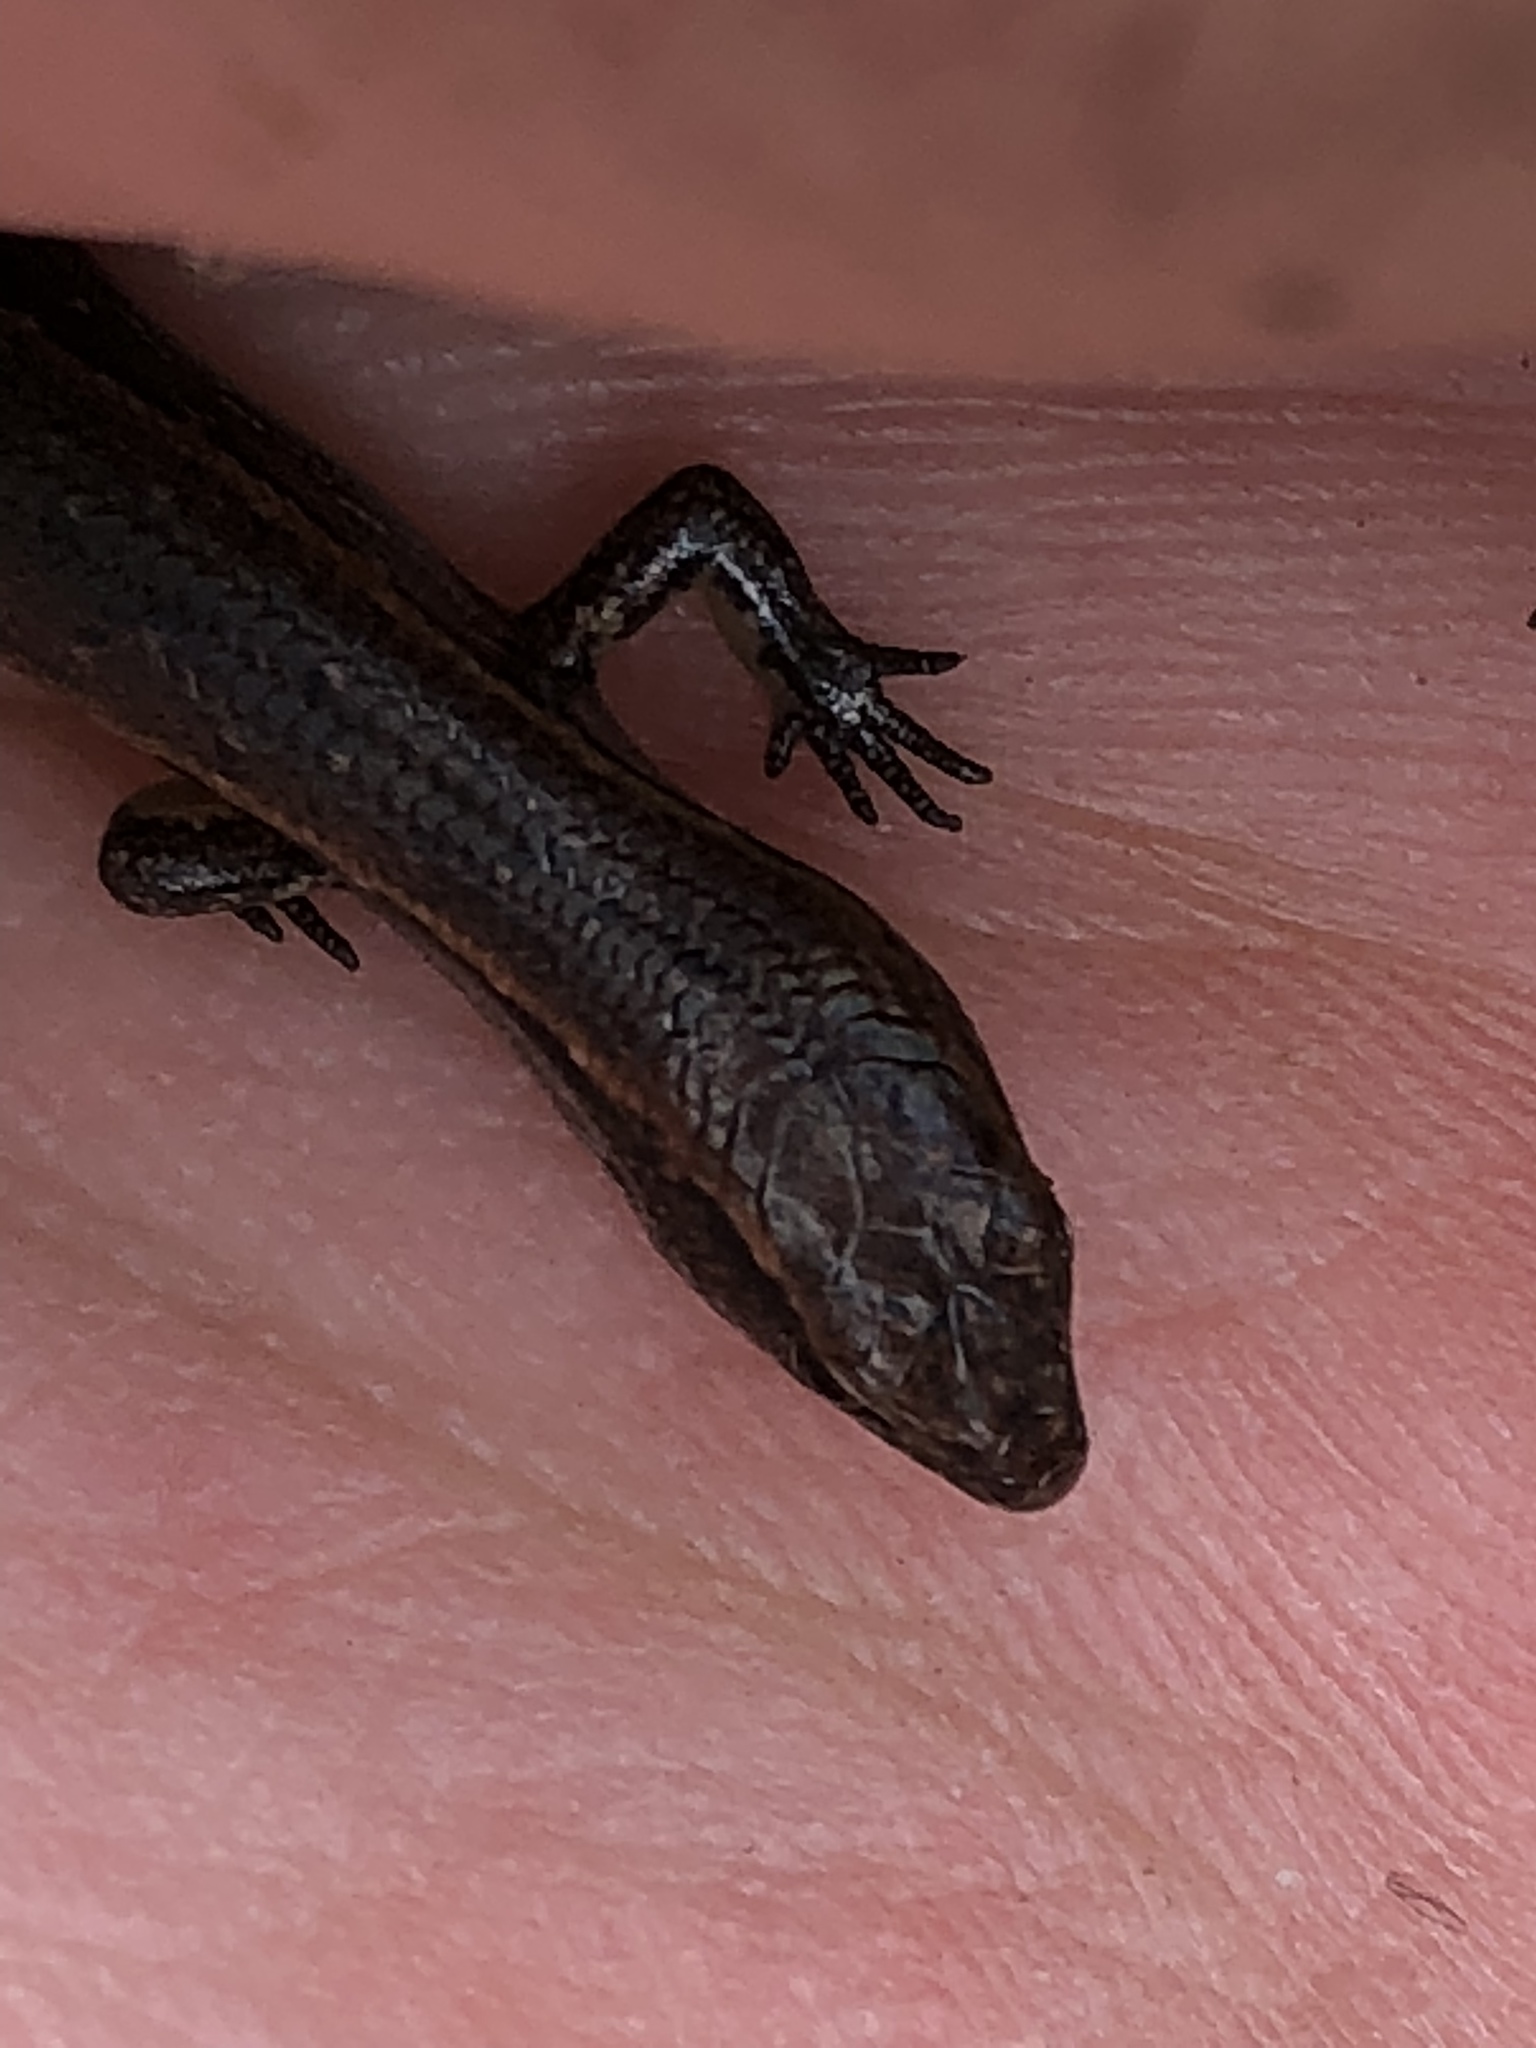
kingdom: Animalia
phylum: Chordata
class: Squamata
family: Scincidae
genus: Oligosoma
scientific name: Oligosoma aeneum
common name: Copper skink
